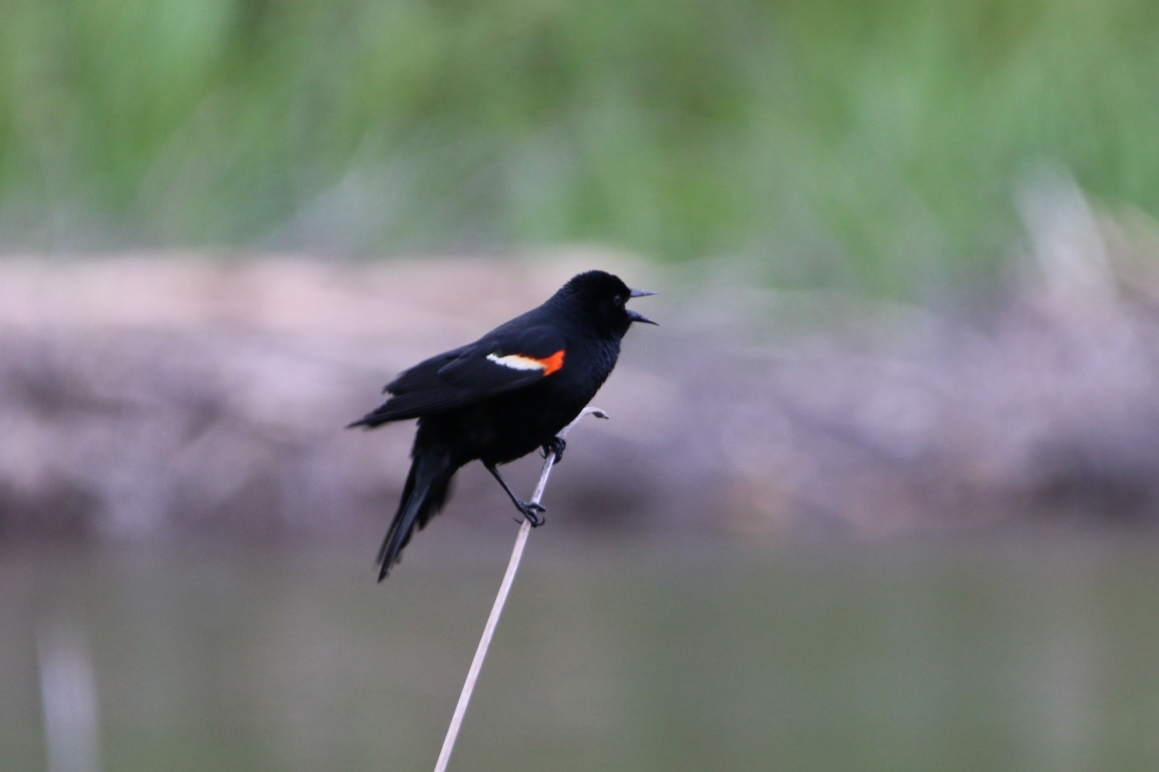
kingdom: Animalia
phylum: Chordata
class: Aves
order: Passeriformes
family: Icteridae
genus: Agelaius
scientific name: Agelaius phoeniceus
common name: Red-winged blackbird
